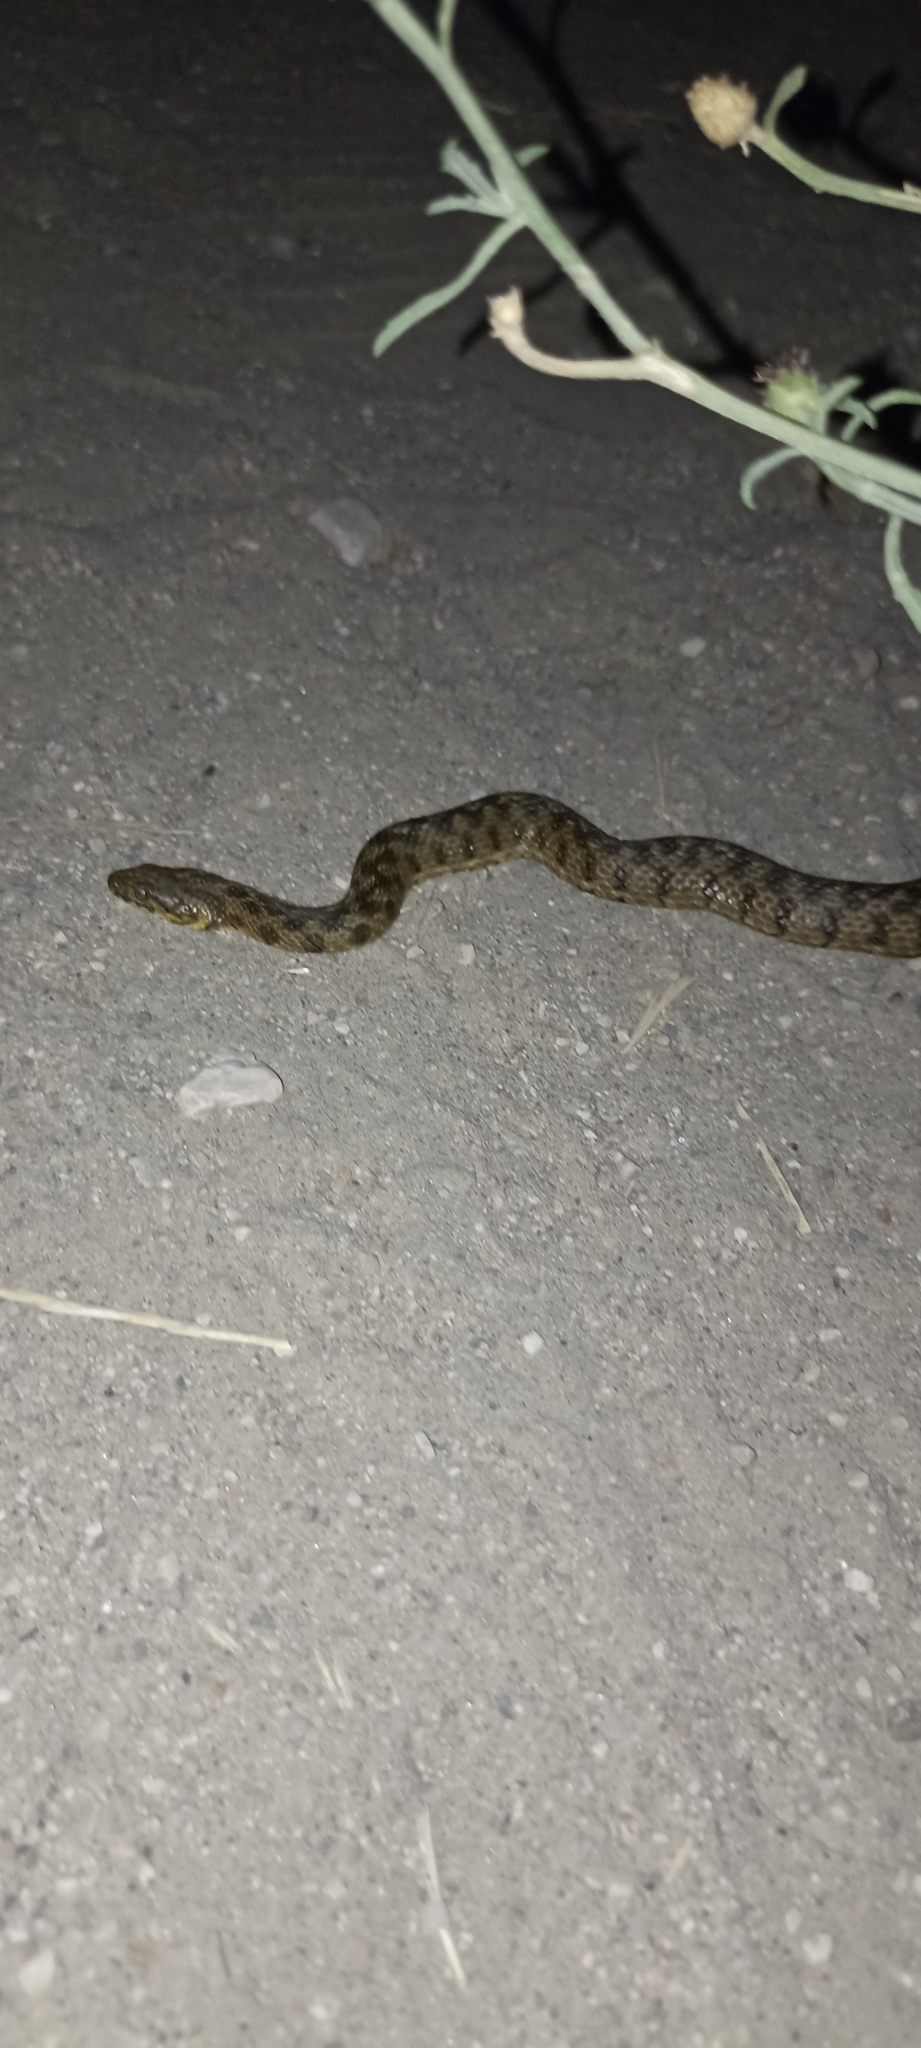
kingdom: Animalia
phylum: Chordata
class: Squamata
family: Colubridae
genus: Natrix
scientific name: Natrix maura
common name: Viperine water snake
